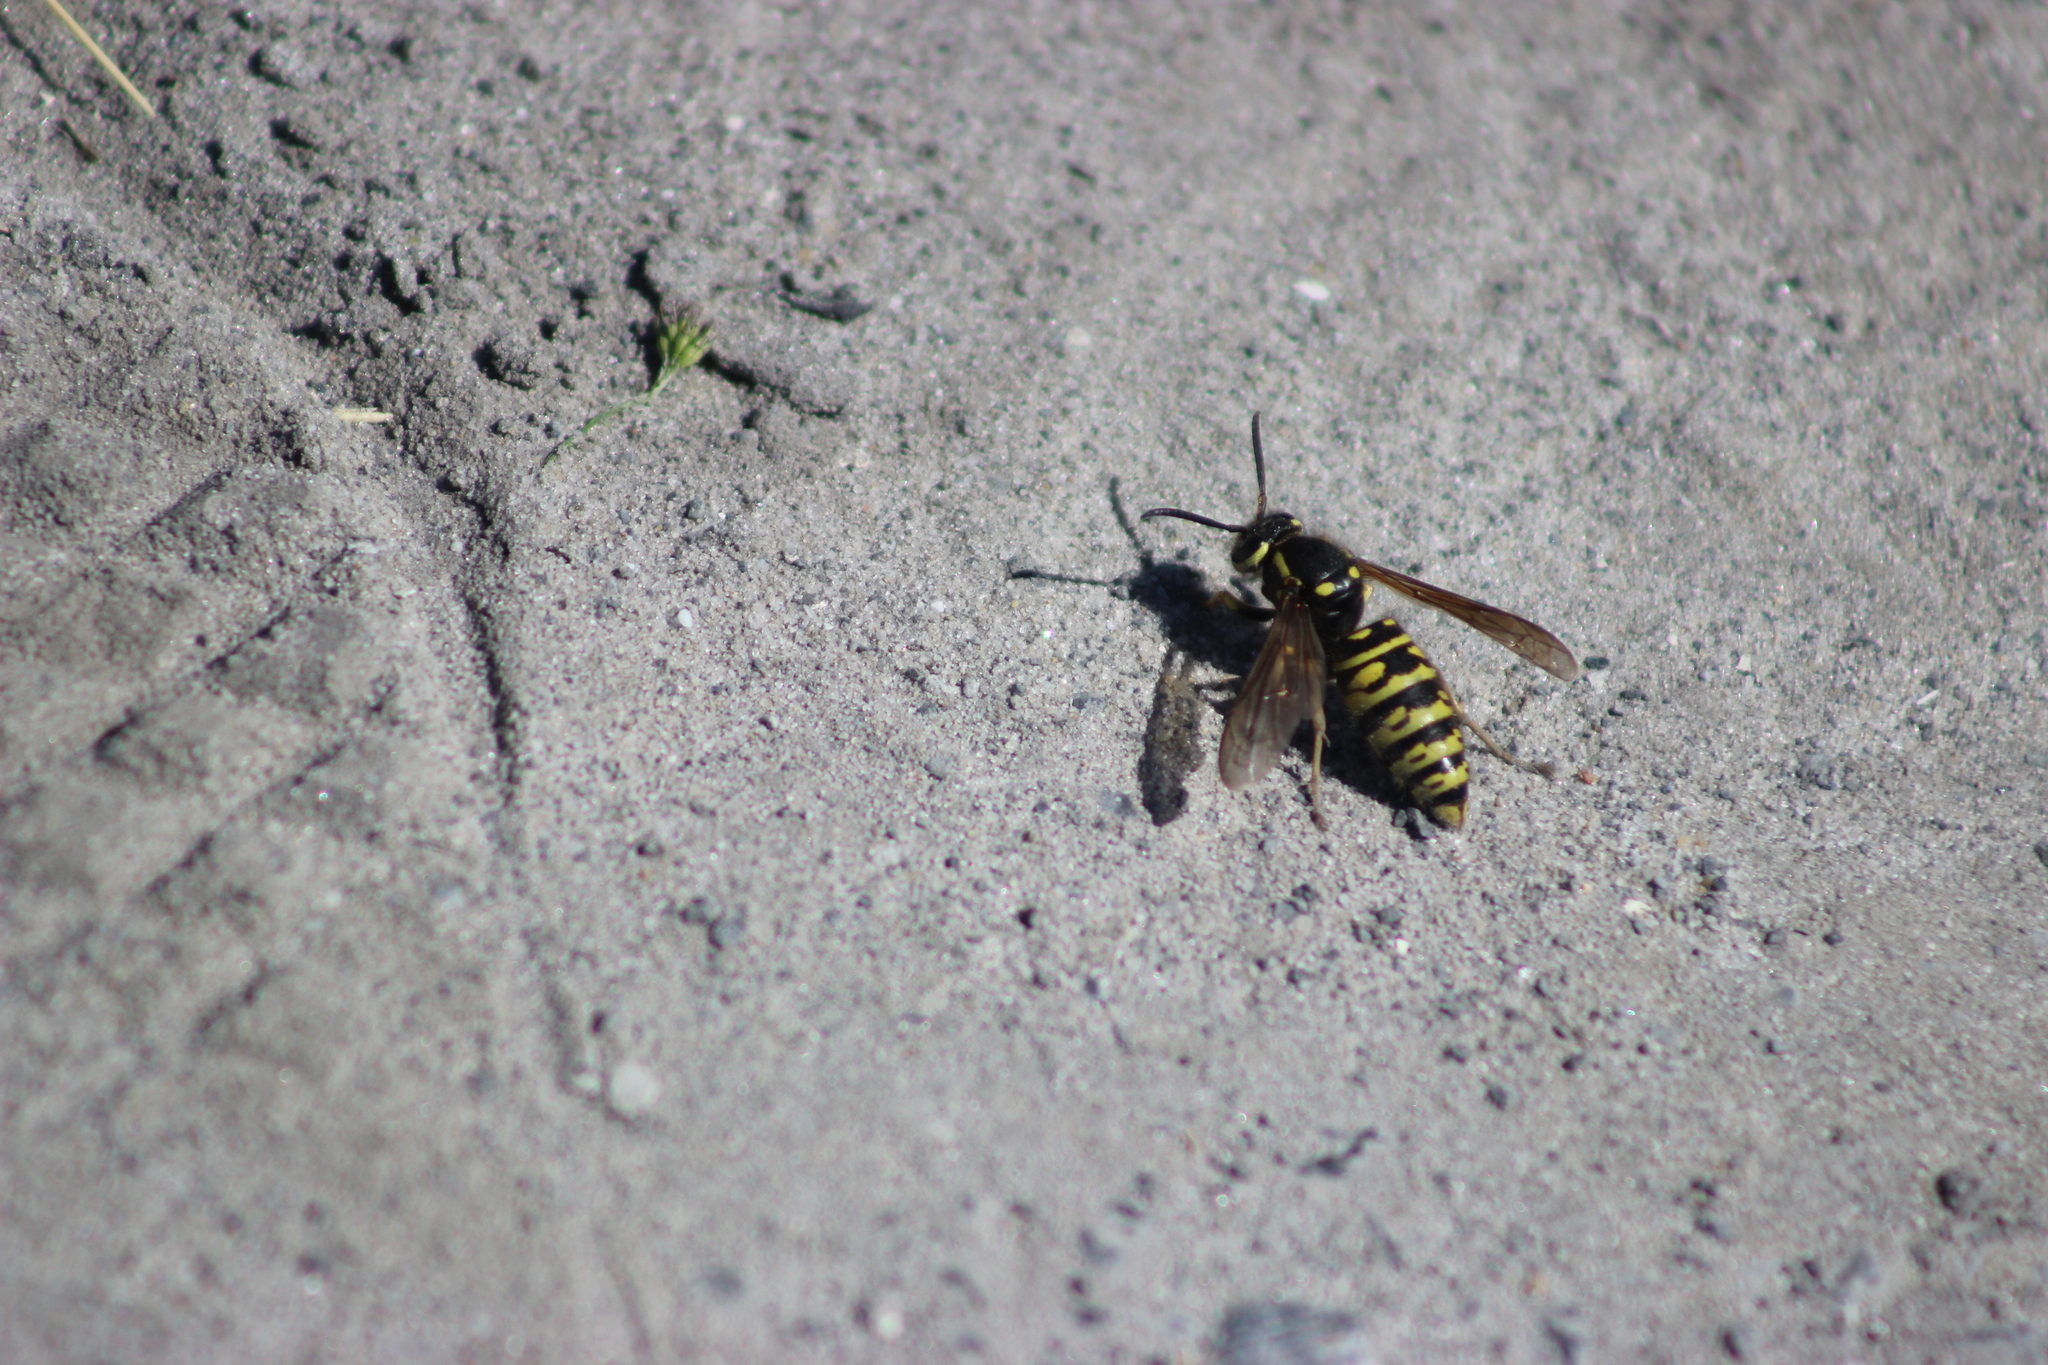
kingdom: Animalia
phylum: Arthropoda
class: Insecta
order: Hymenoptera
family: Vespidae
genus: Vespula
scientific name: Vespula austriaca
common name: Cuckoo wasp
